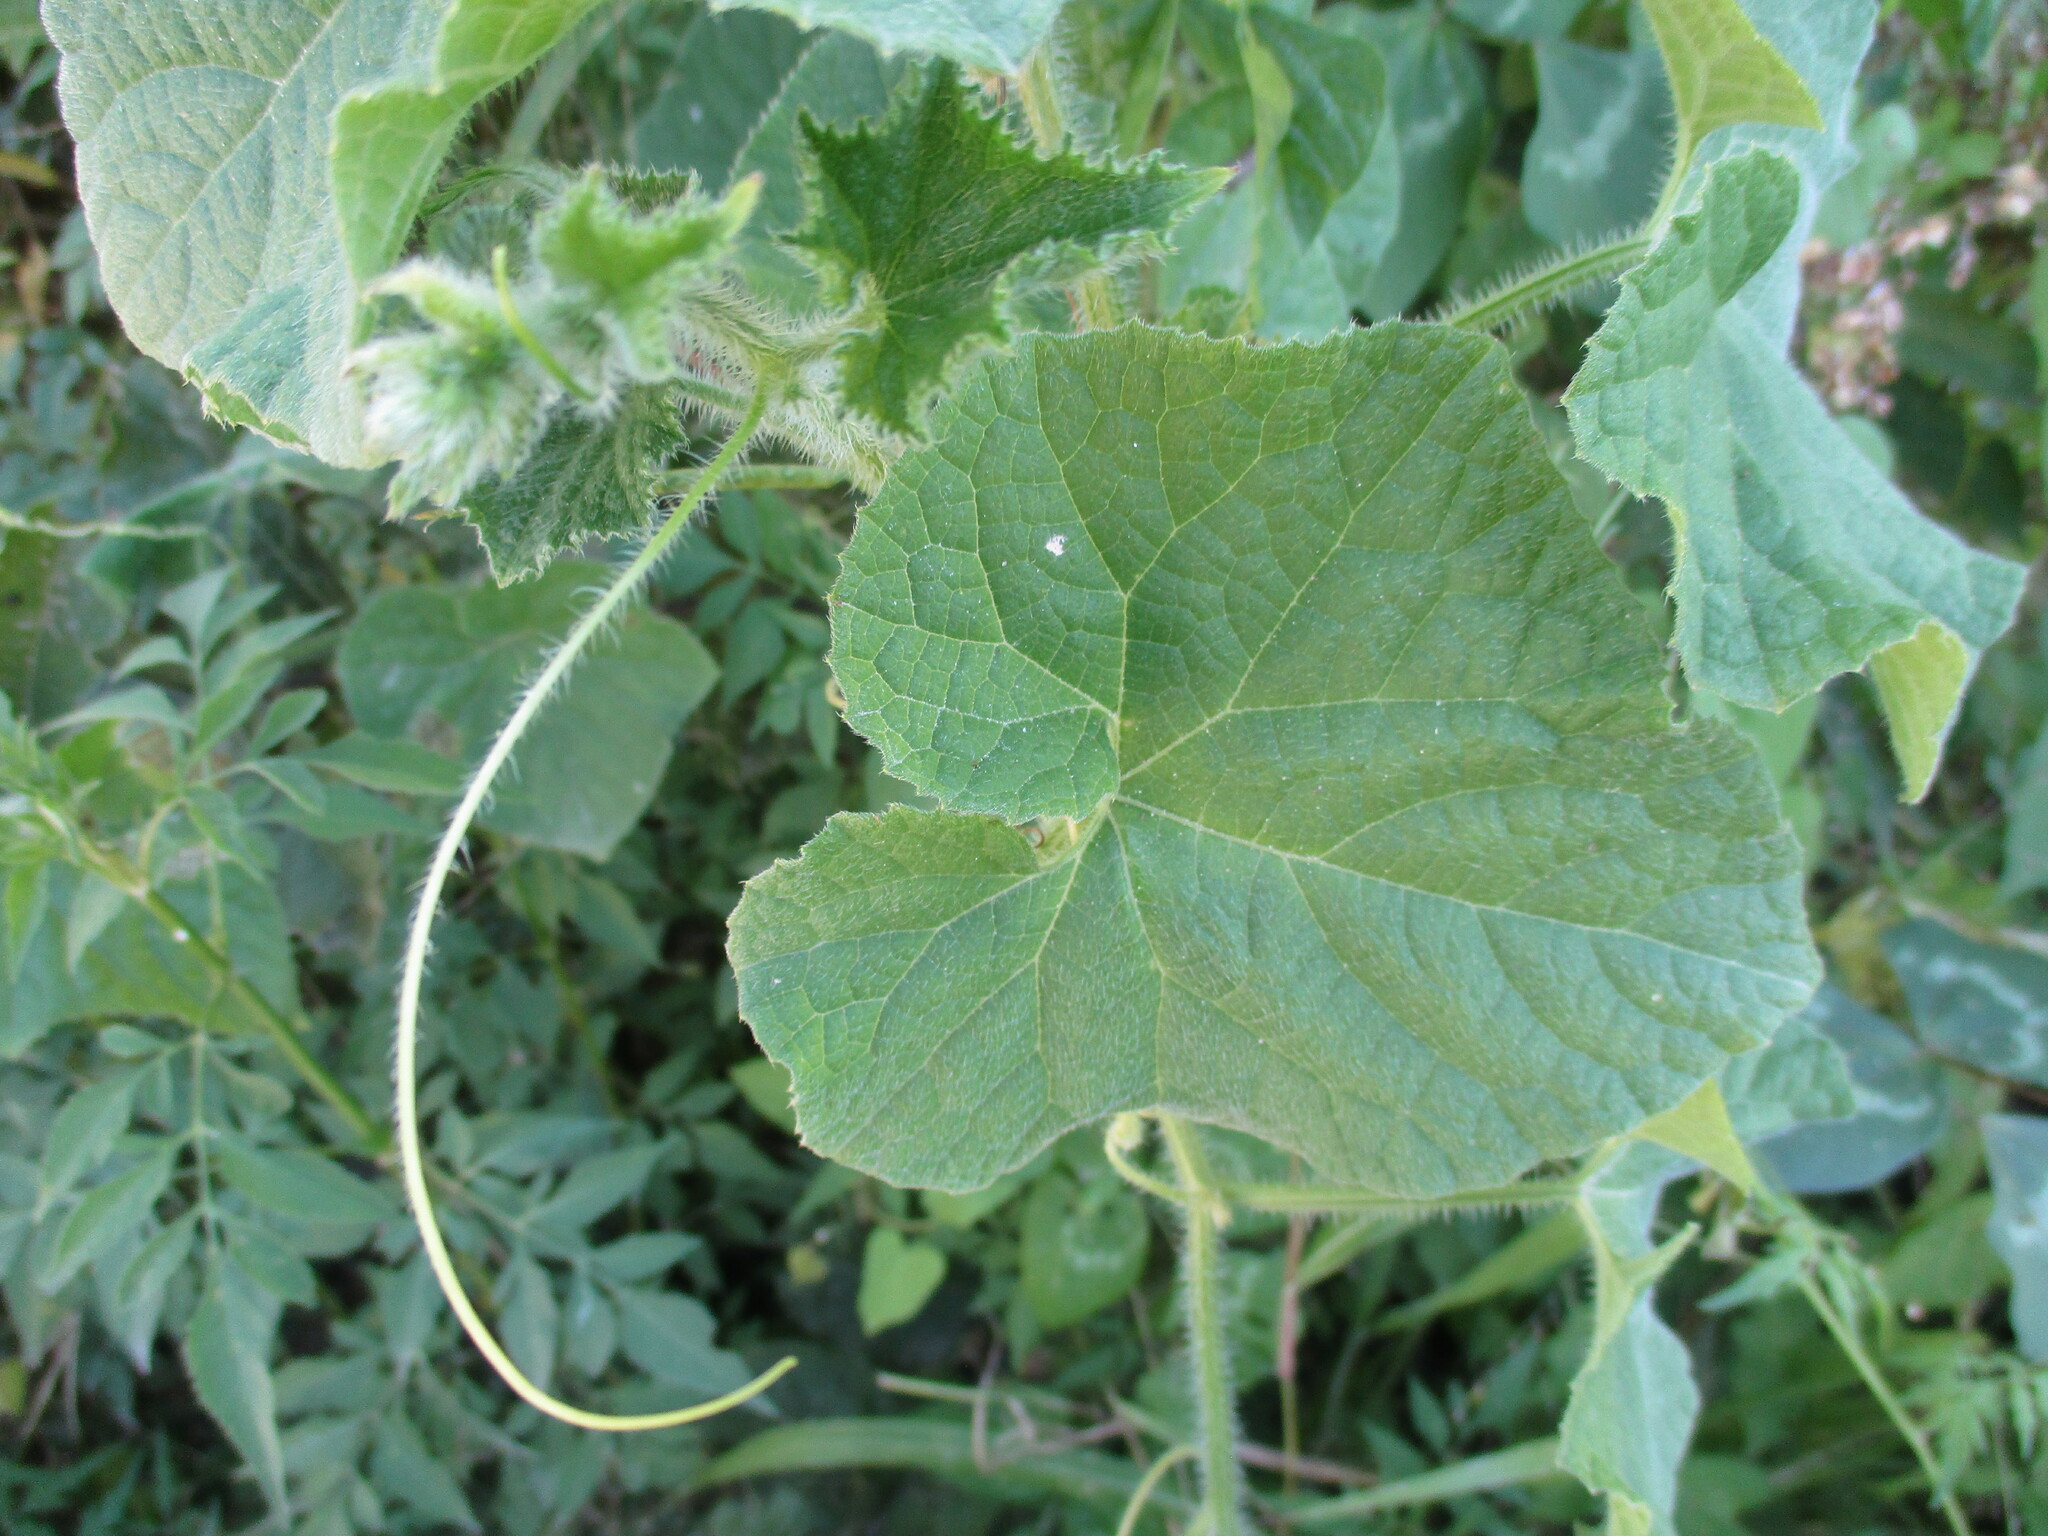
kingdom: Plantae
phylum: Tracheophyta
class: Magnoliopsida
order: Cucurbitales
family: Cucurbitaceae
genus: Cucumis
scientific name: Cucumis metuliferus
